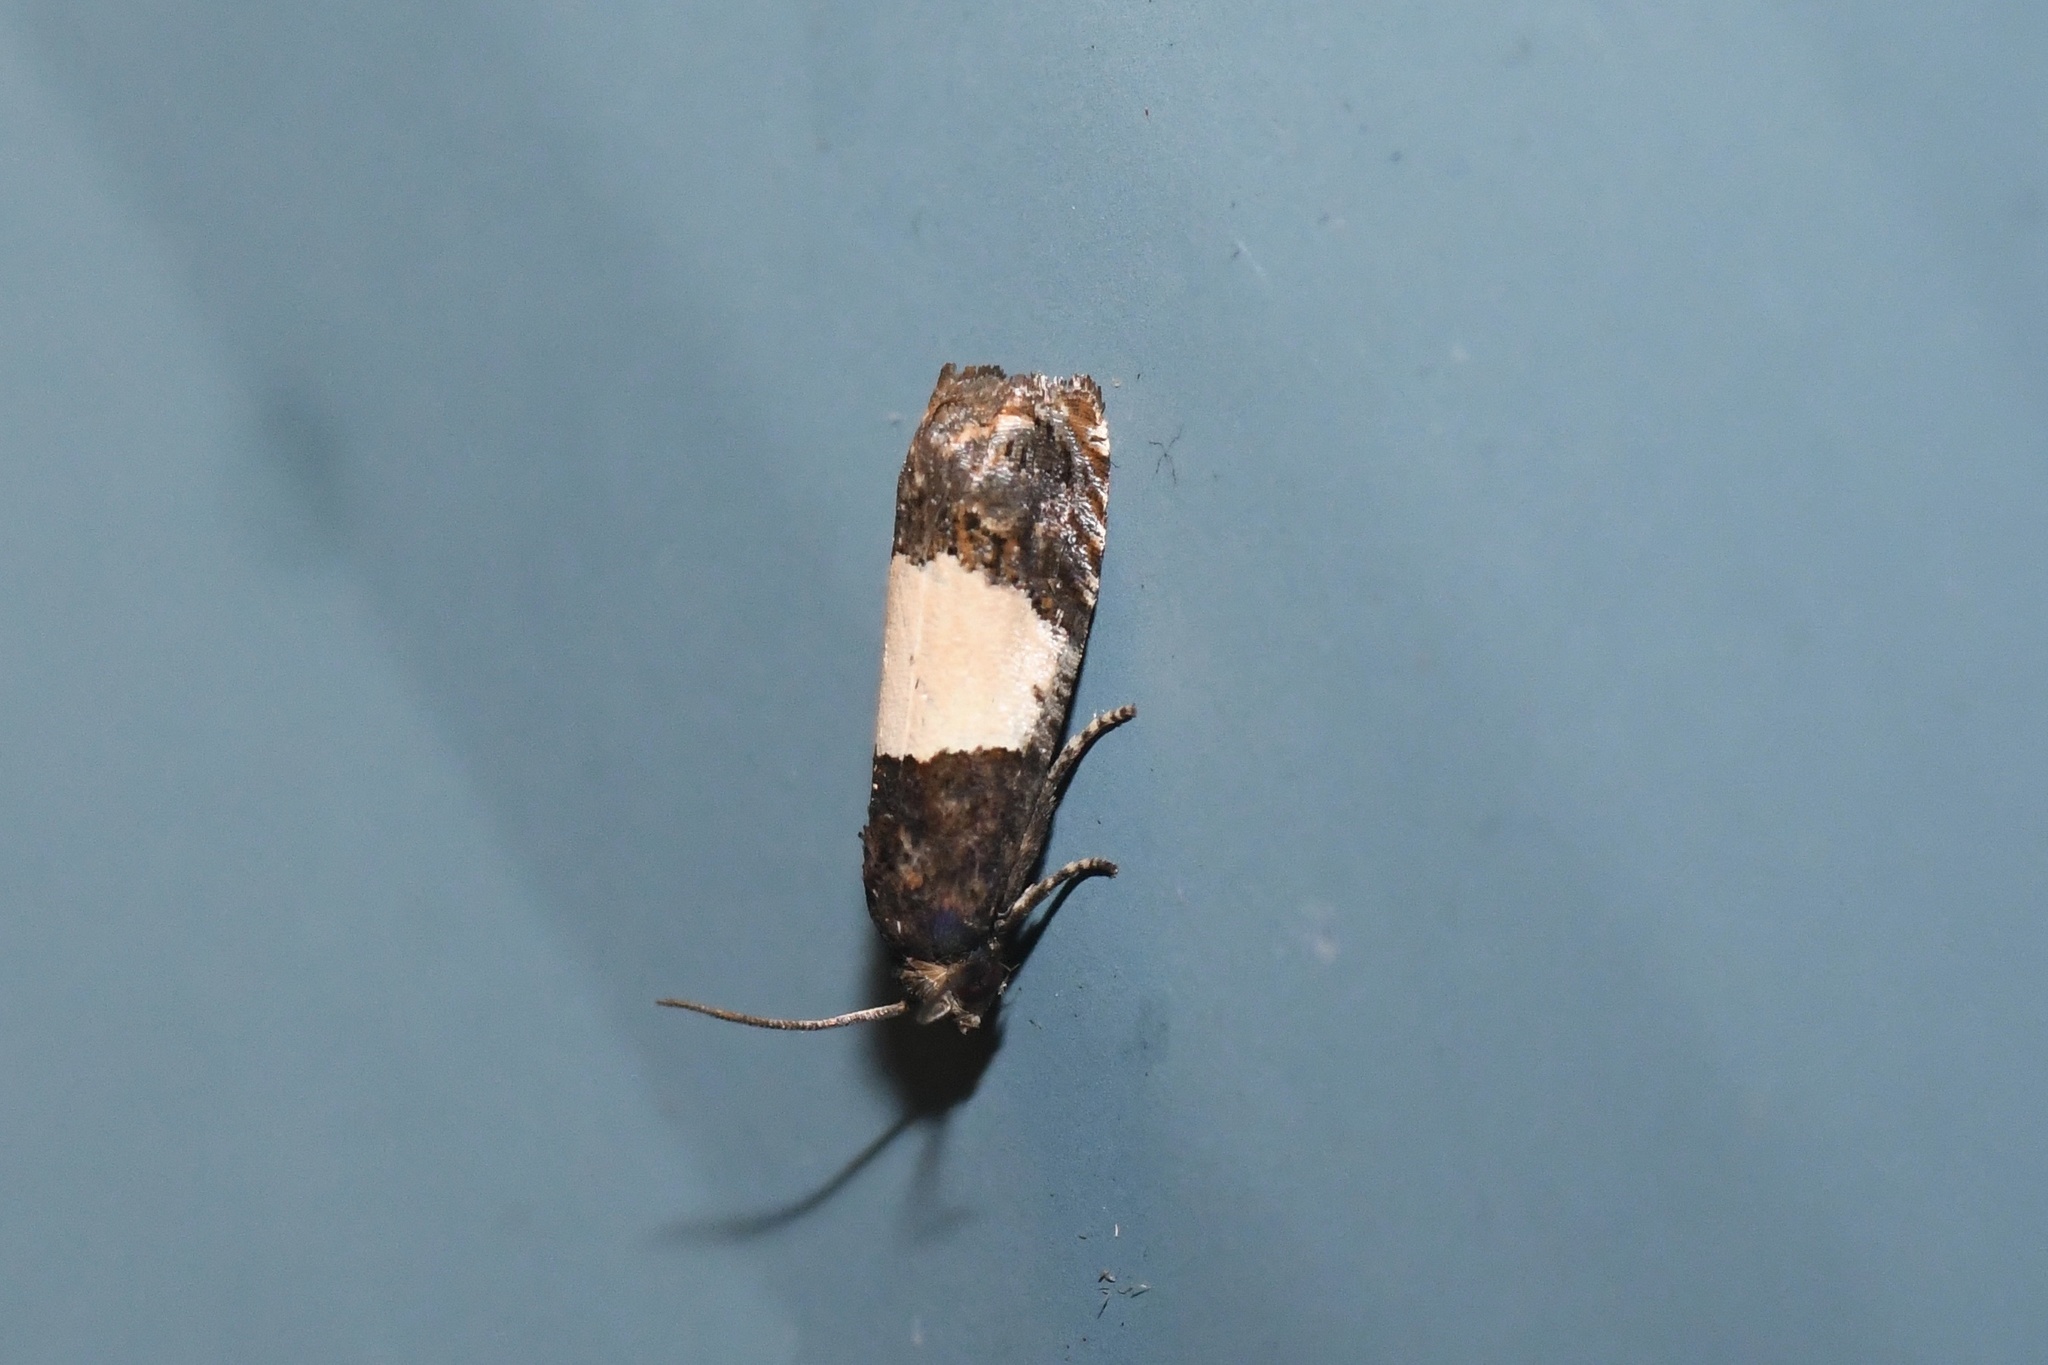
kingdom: Animalia
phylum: Arthropoda
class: Insecta
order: Lepidoptera
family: Tortricidae
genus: Epiblema
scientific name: Epiblema tripartitana
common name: Three-parted epiblema moth
